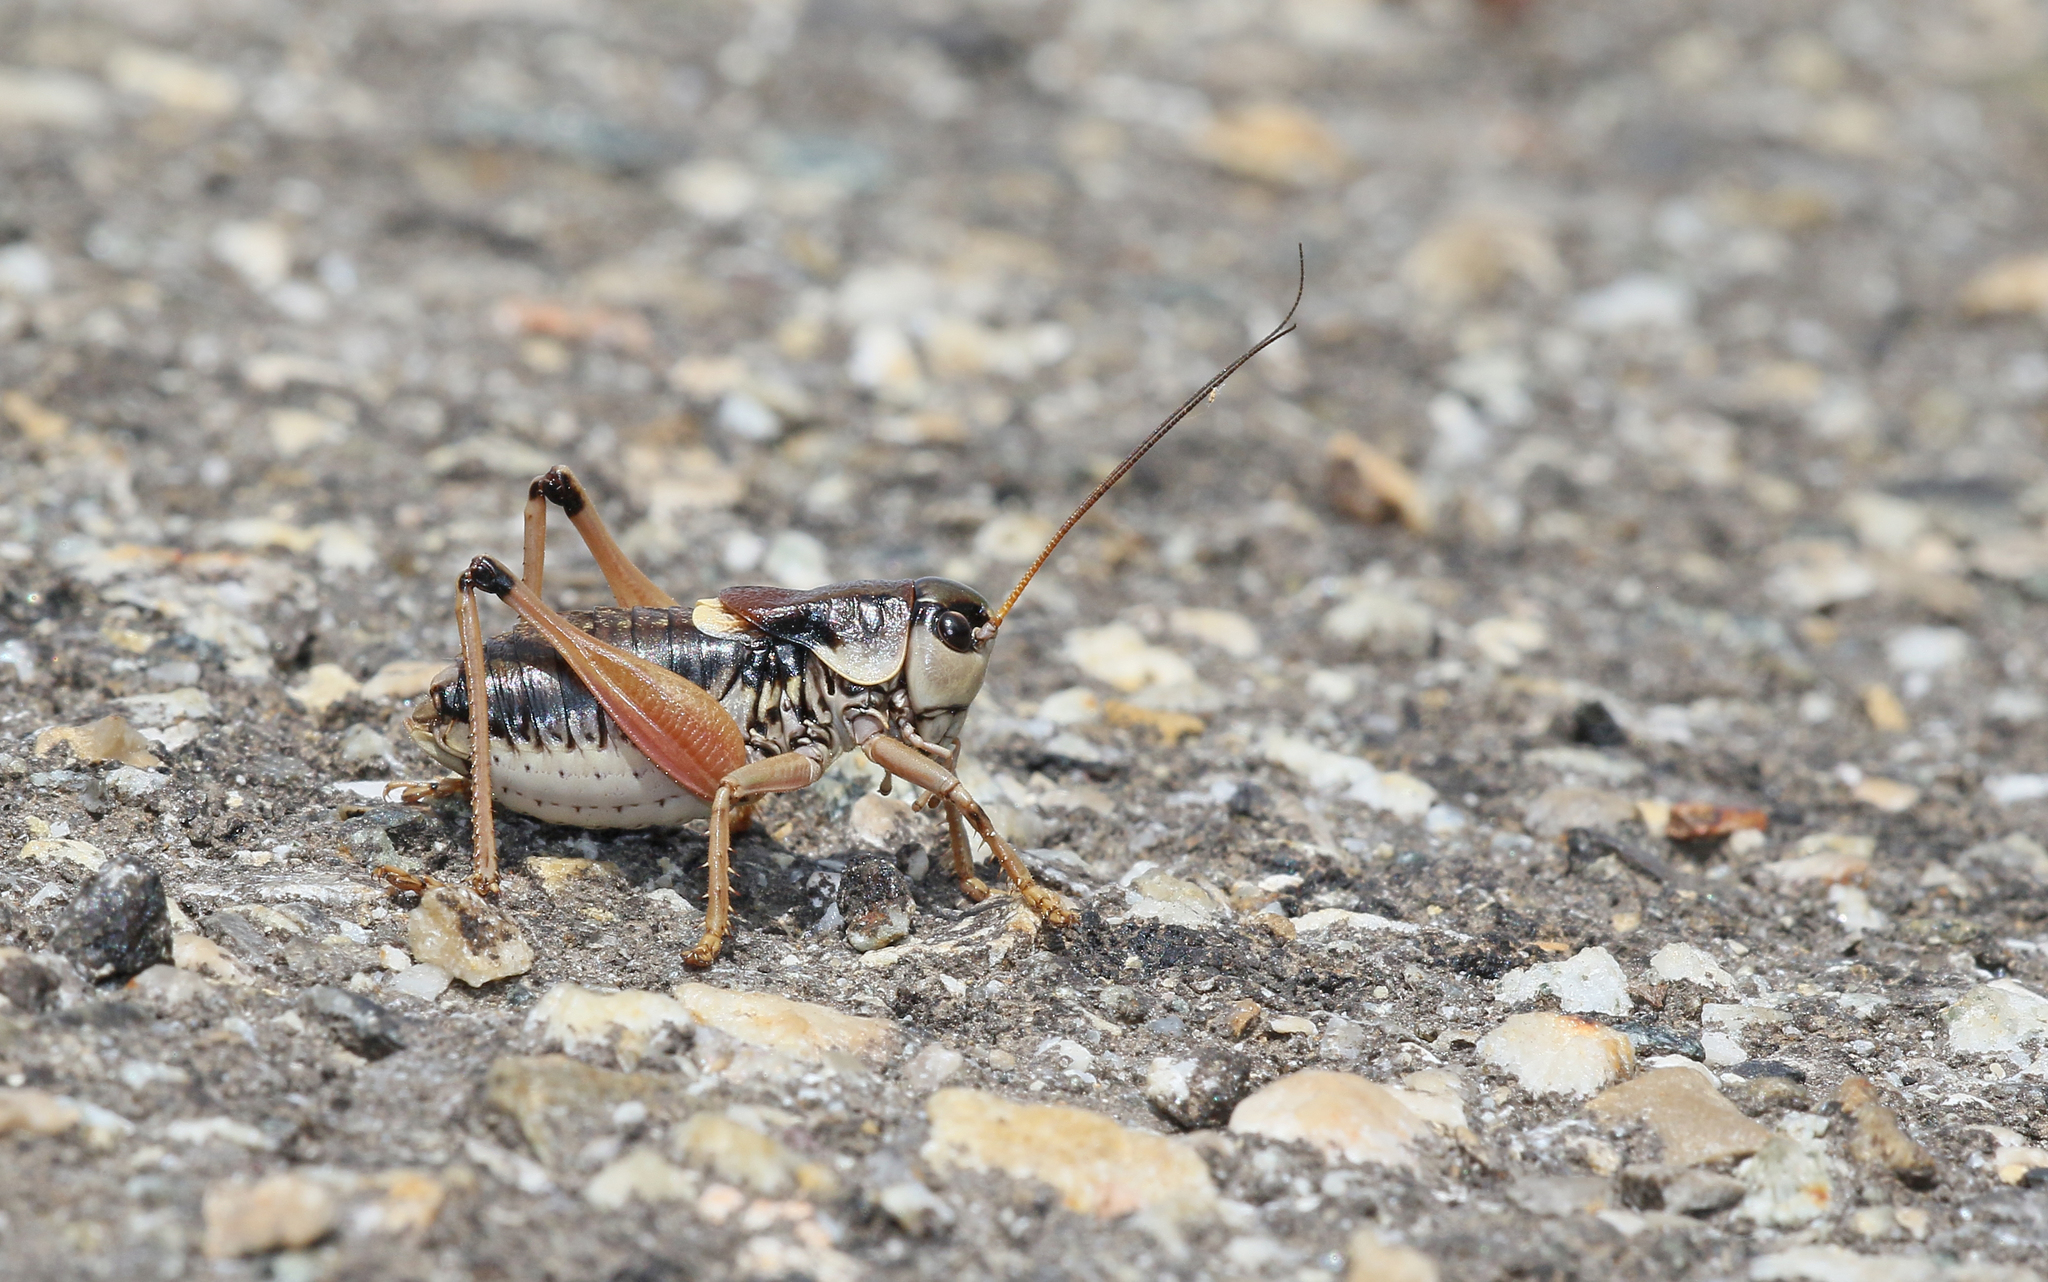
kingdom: Animalia
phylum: Arthropoda
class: Insecta
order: Orthoptera
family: Tettigoniidae
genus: Anonconotus
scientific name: Anonconotus ghilianii
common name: Ghiliani's alpine bush-cricket
